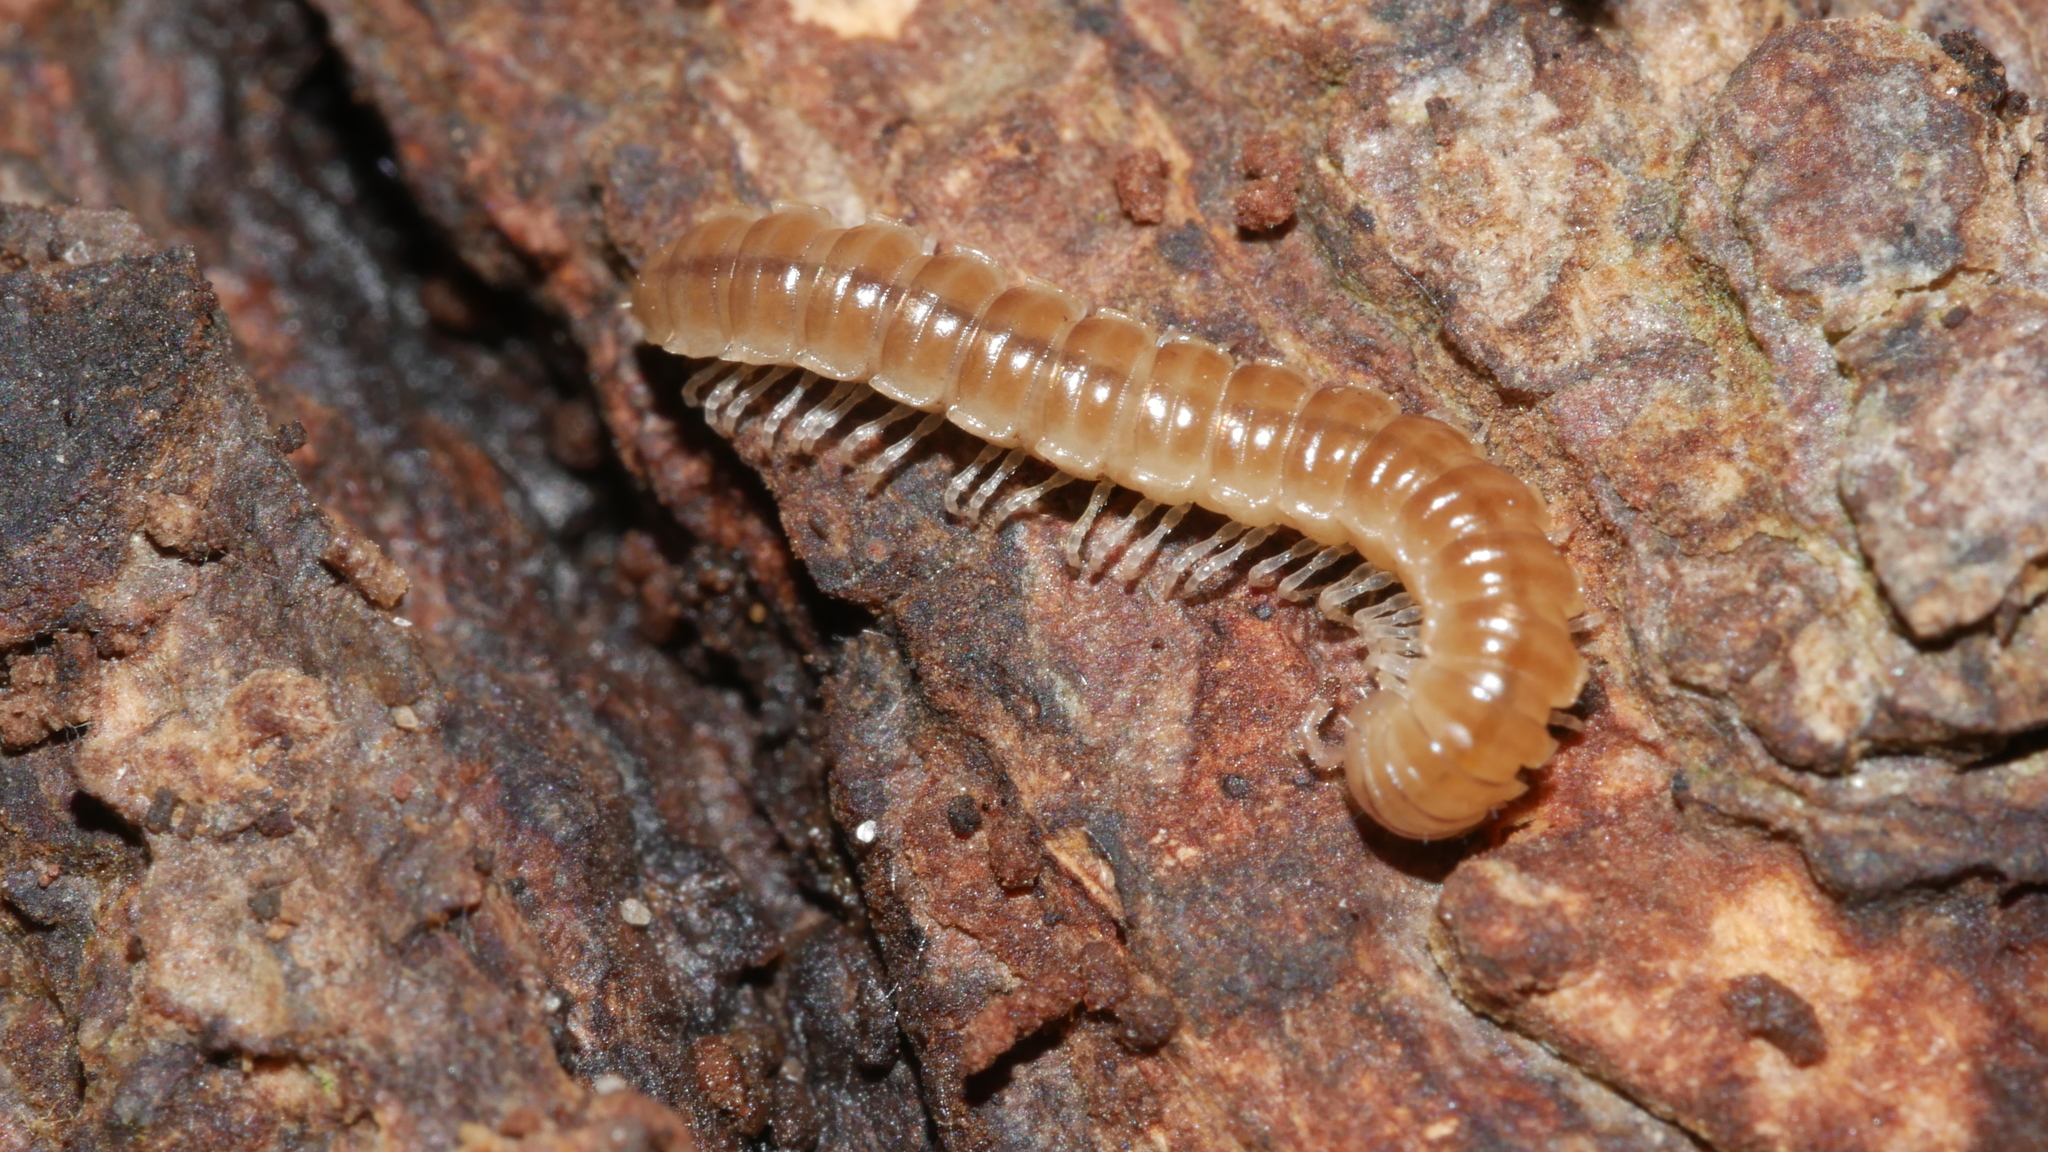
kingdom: Animalia
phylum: Arthropoda
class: Diplopoda
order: Polydesmida
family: Paradoxosomatidae
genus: Oxidus
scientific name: Oxidus gracilis
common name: Greenhouse millipede
